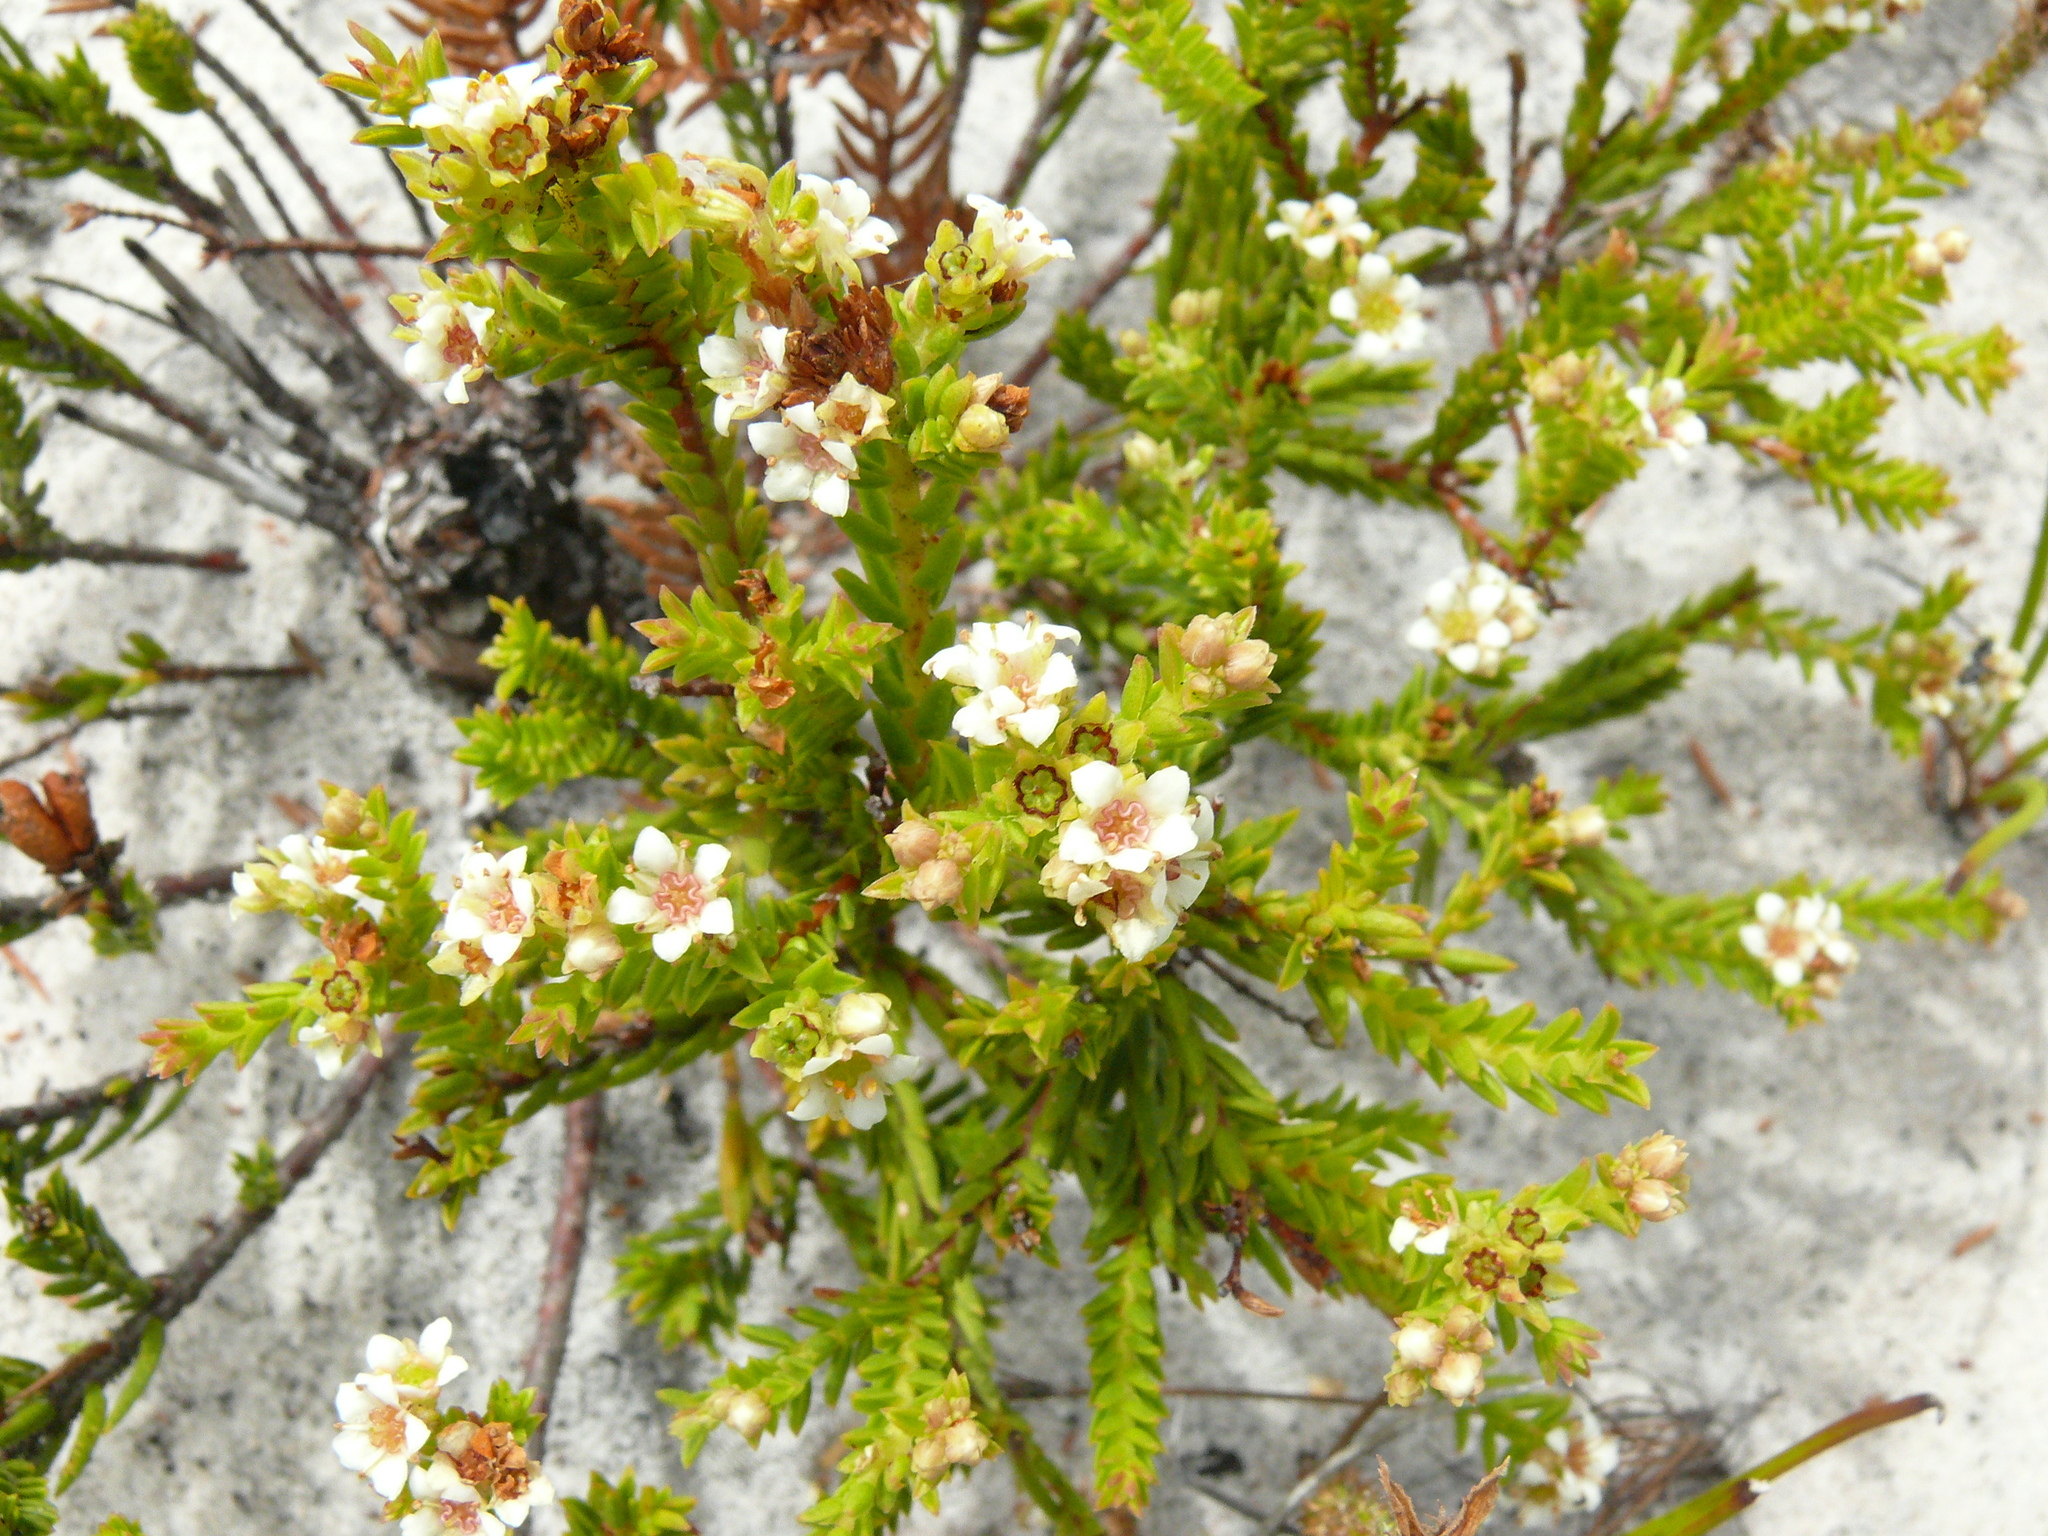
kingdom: Plantae
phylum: Tracheophyta
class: Magnoliopsida
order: Sapindales
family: Rutaceae
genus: Diosma
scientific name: Diosma oppositifolia
